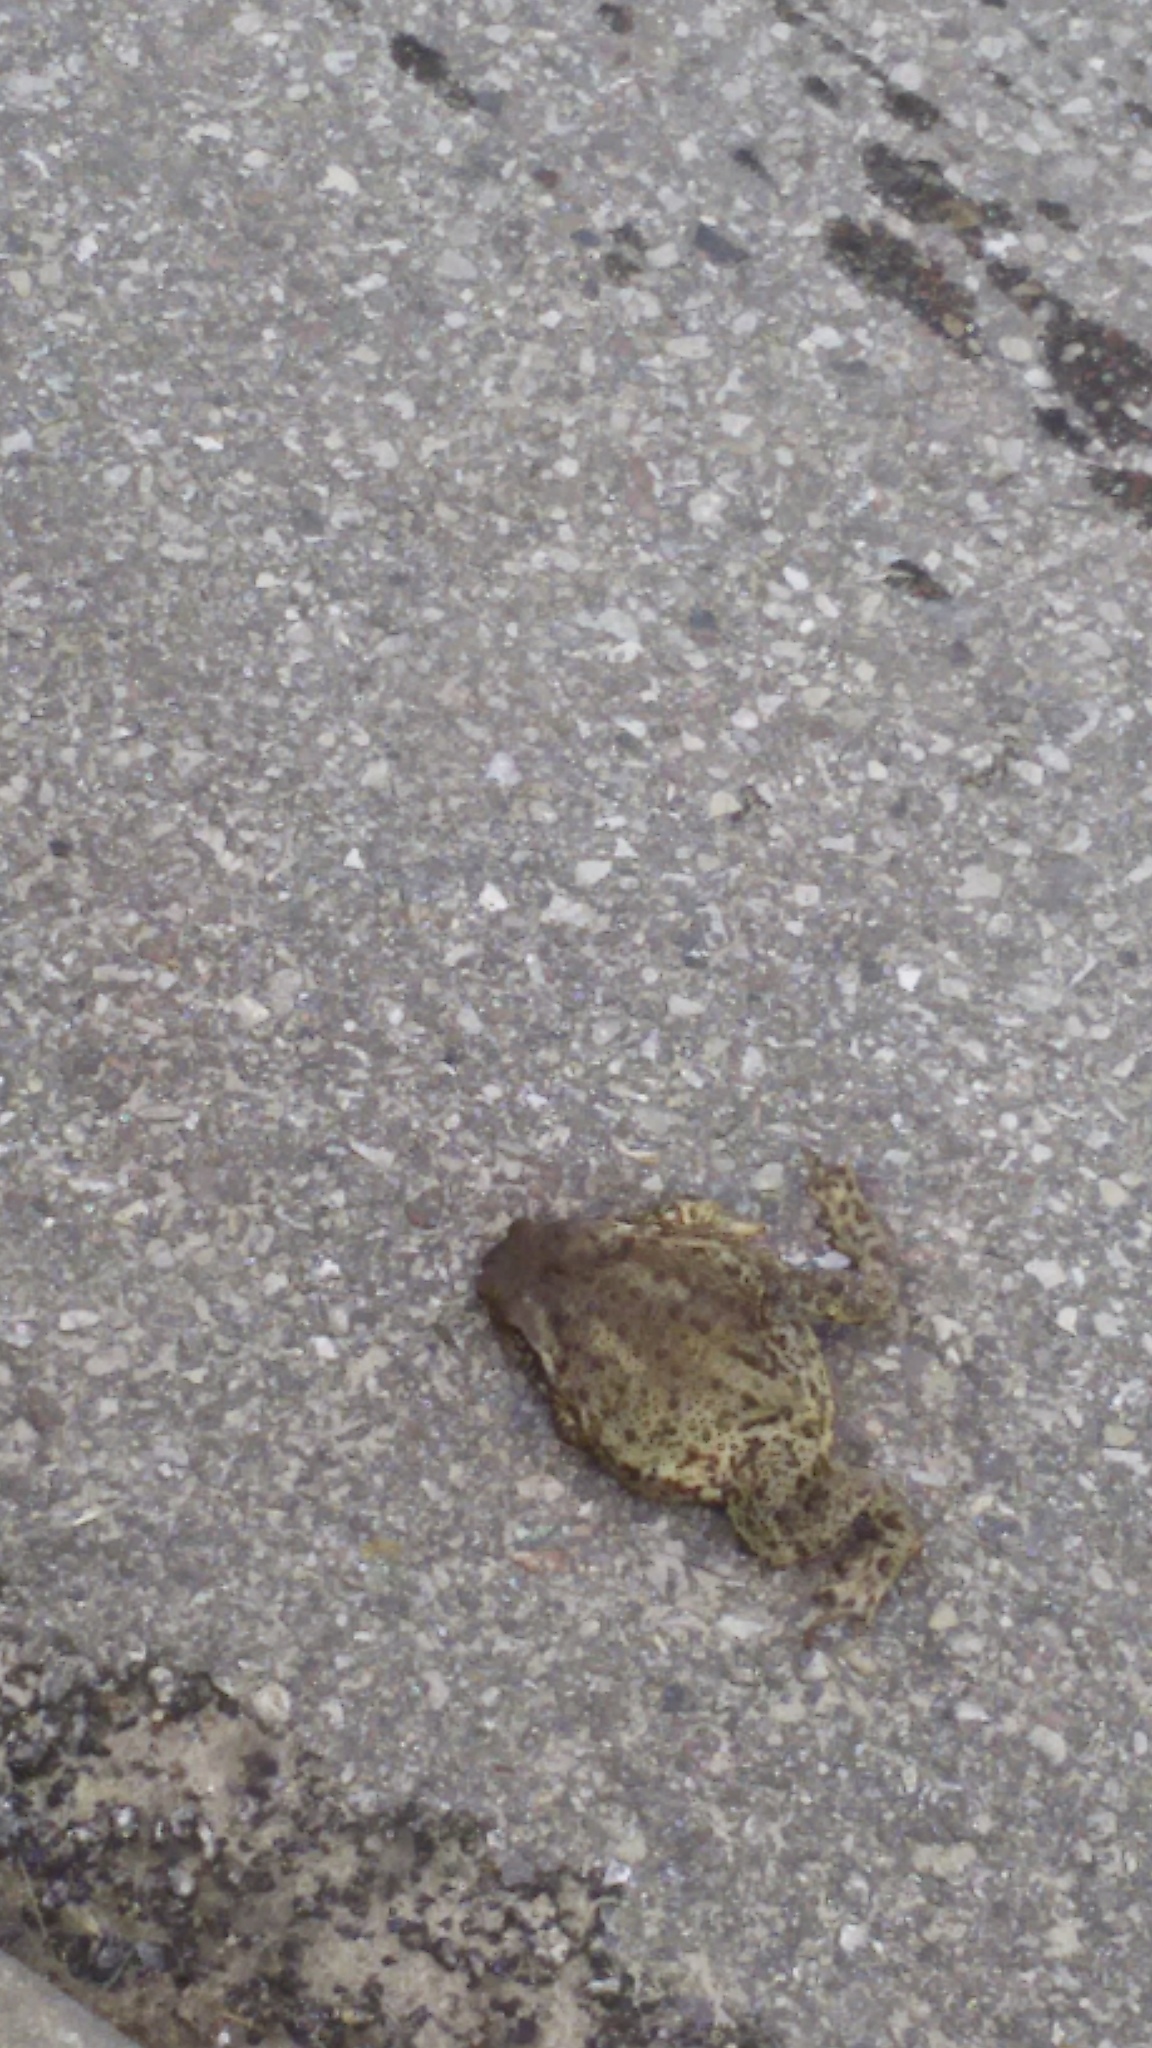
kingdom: Animalia
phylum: Chordata
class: Amphibia
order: Anura
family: Bufonidae
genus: Bufo
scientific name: Bufo bufo
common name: Common toad
